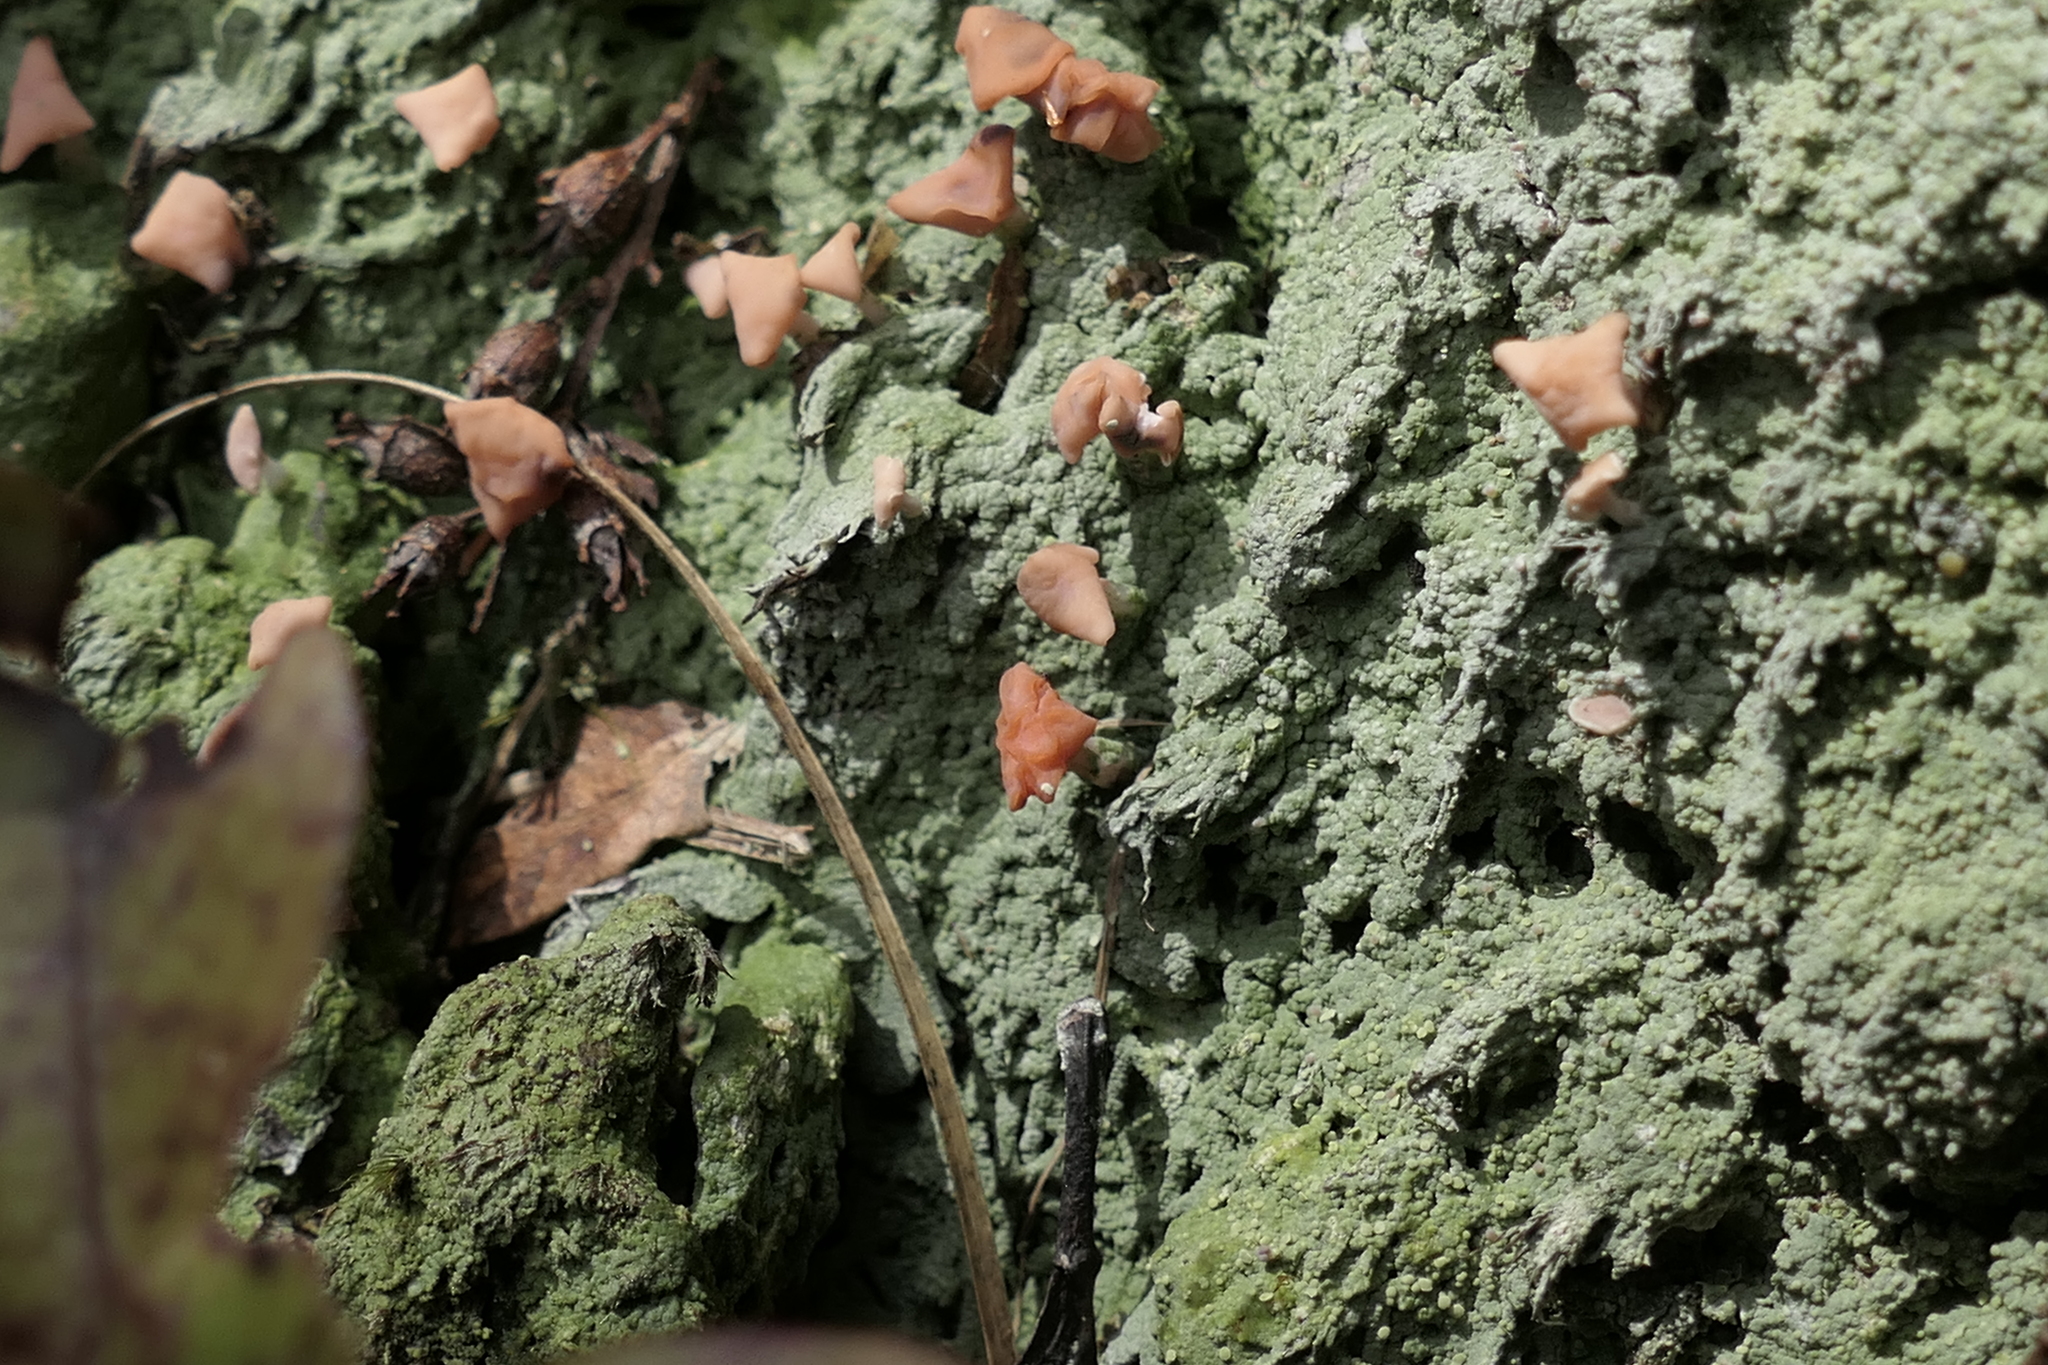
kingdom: Fungi
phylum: Ascomycota
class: Lecanoromycetes
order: Pertusariales
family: Icmadophilaceae
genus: Dibaeis
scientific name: Dibaeis arcuata
